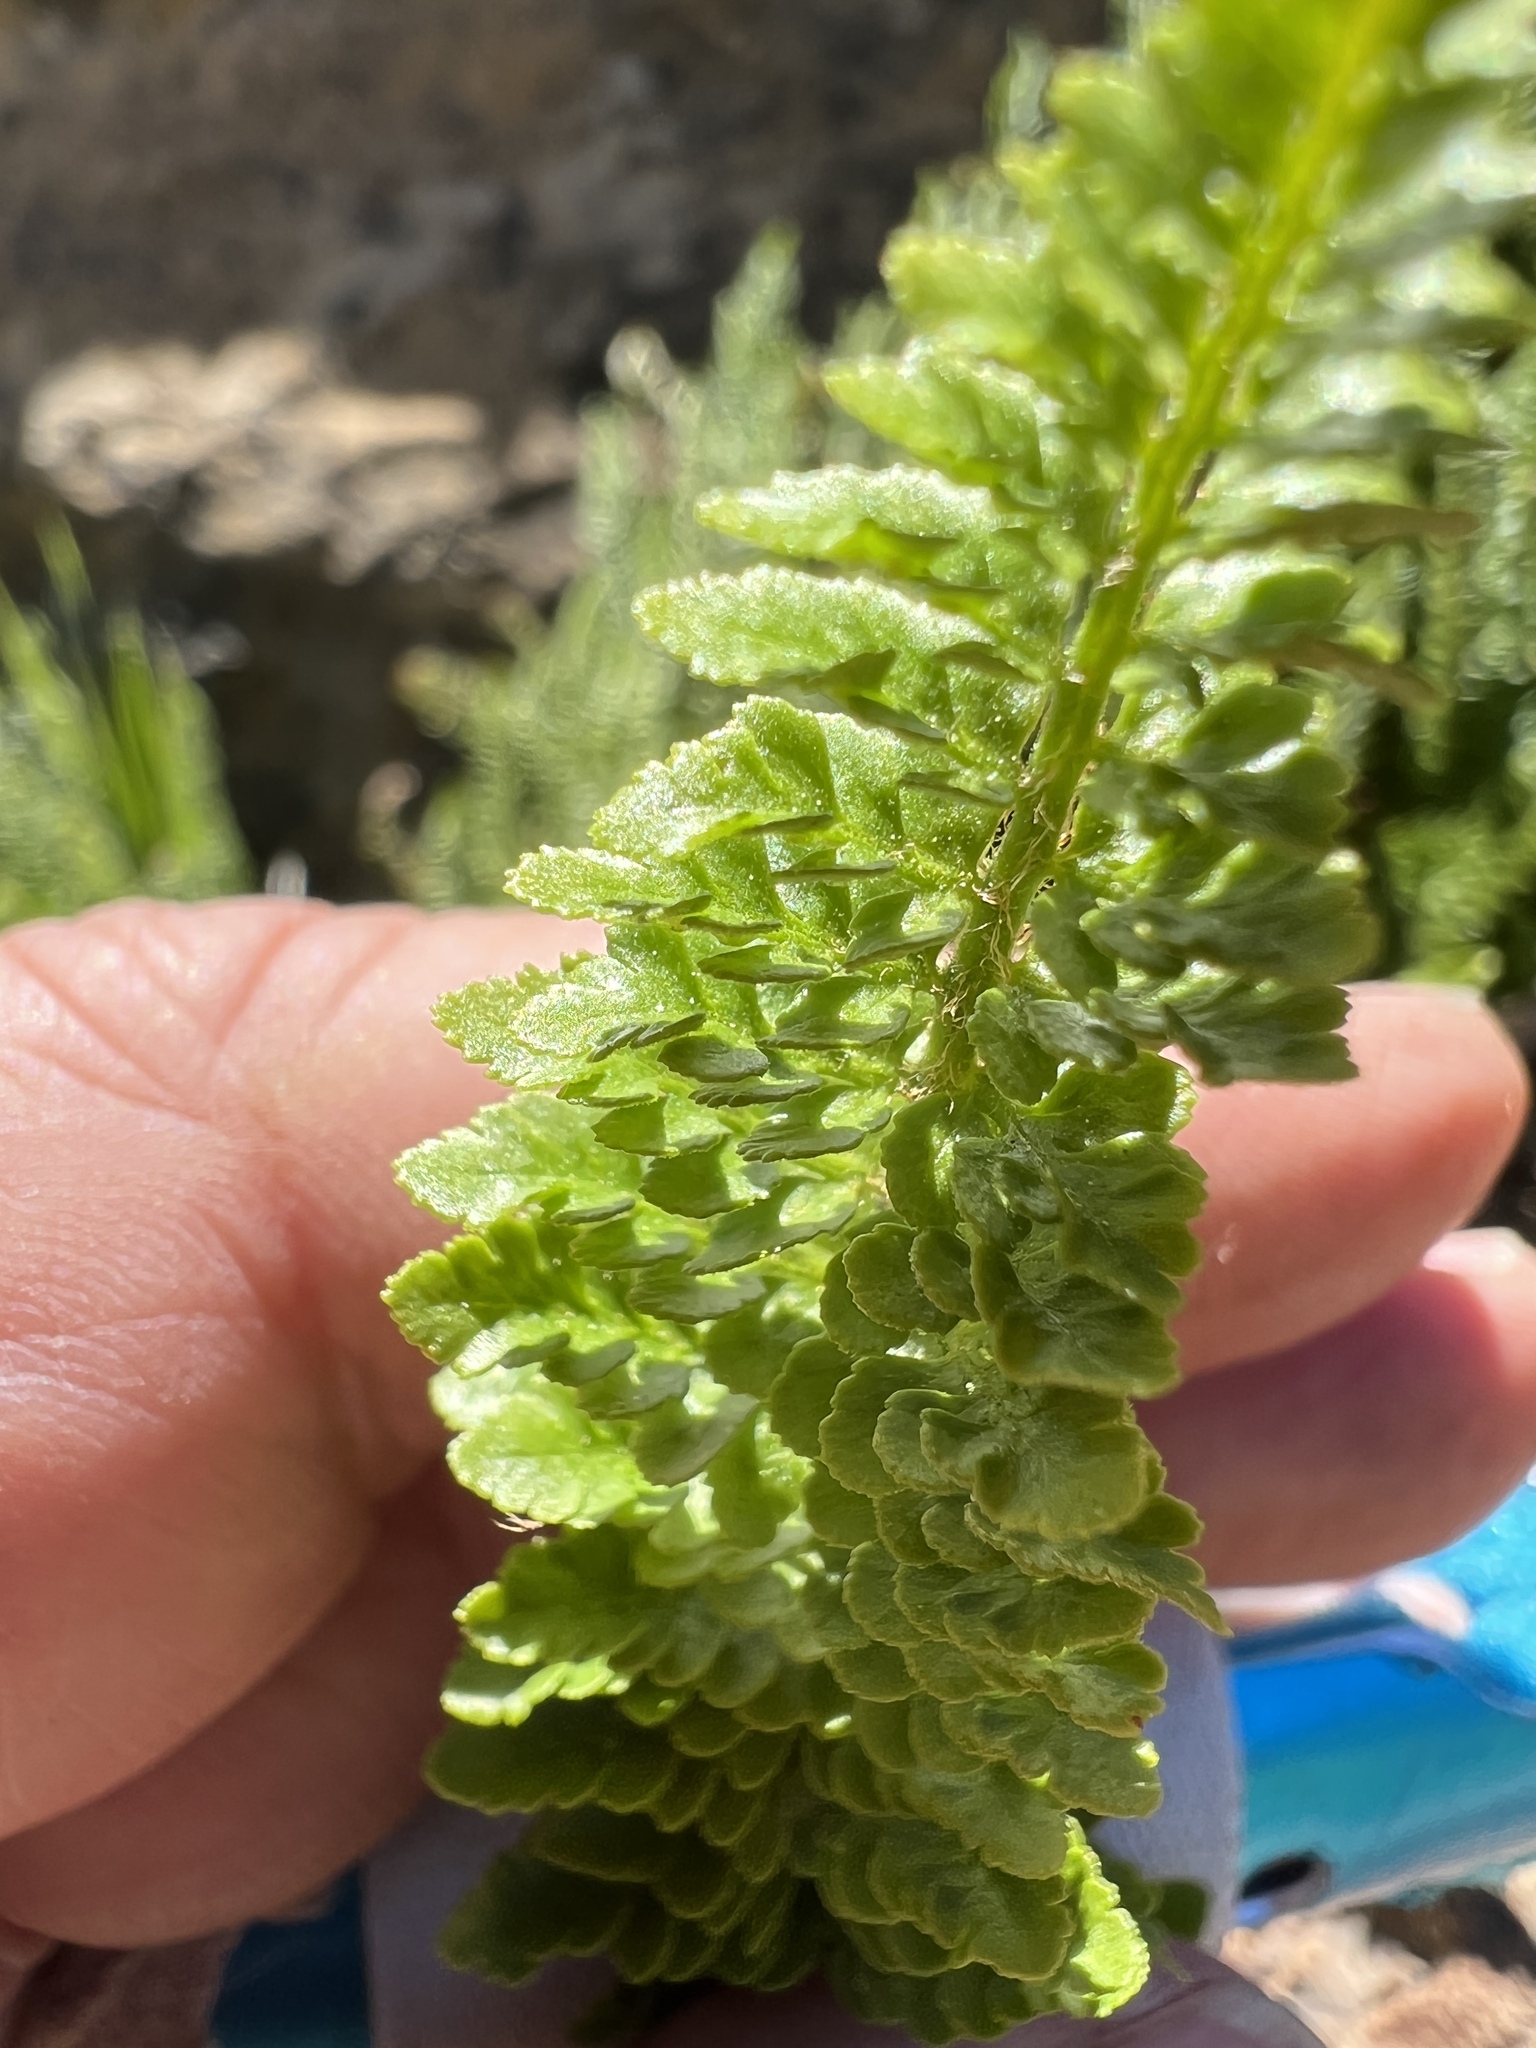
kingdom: Plantae
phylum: Tracheophyta
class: Polypodiopsida
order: Polypodiales
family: Dryopteridaceae
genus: Polystichum
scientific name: Polystichum lemmonii
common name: Lemmon's holly fern
